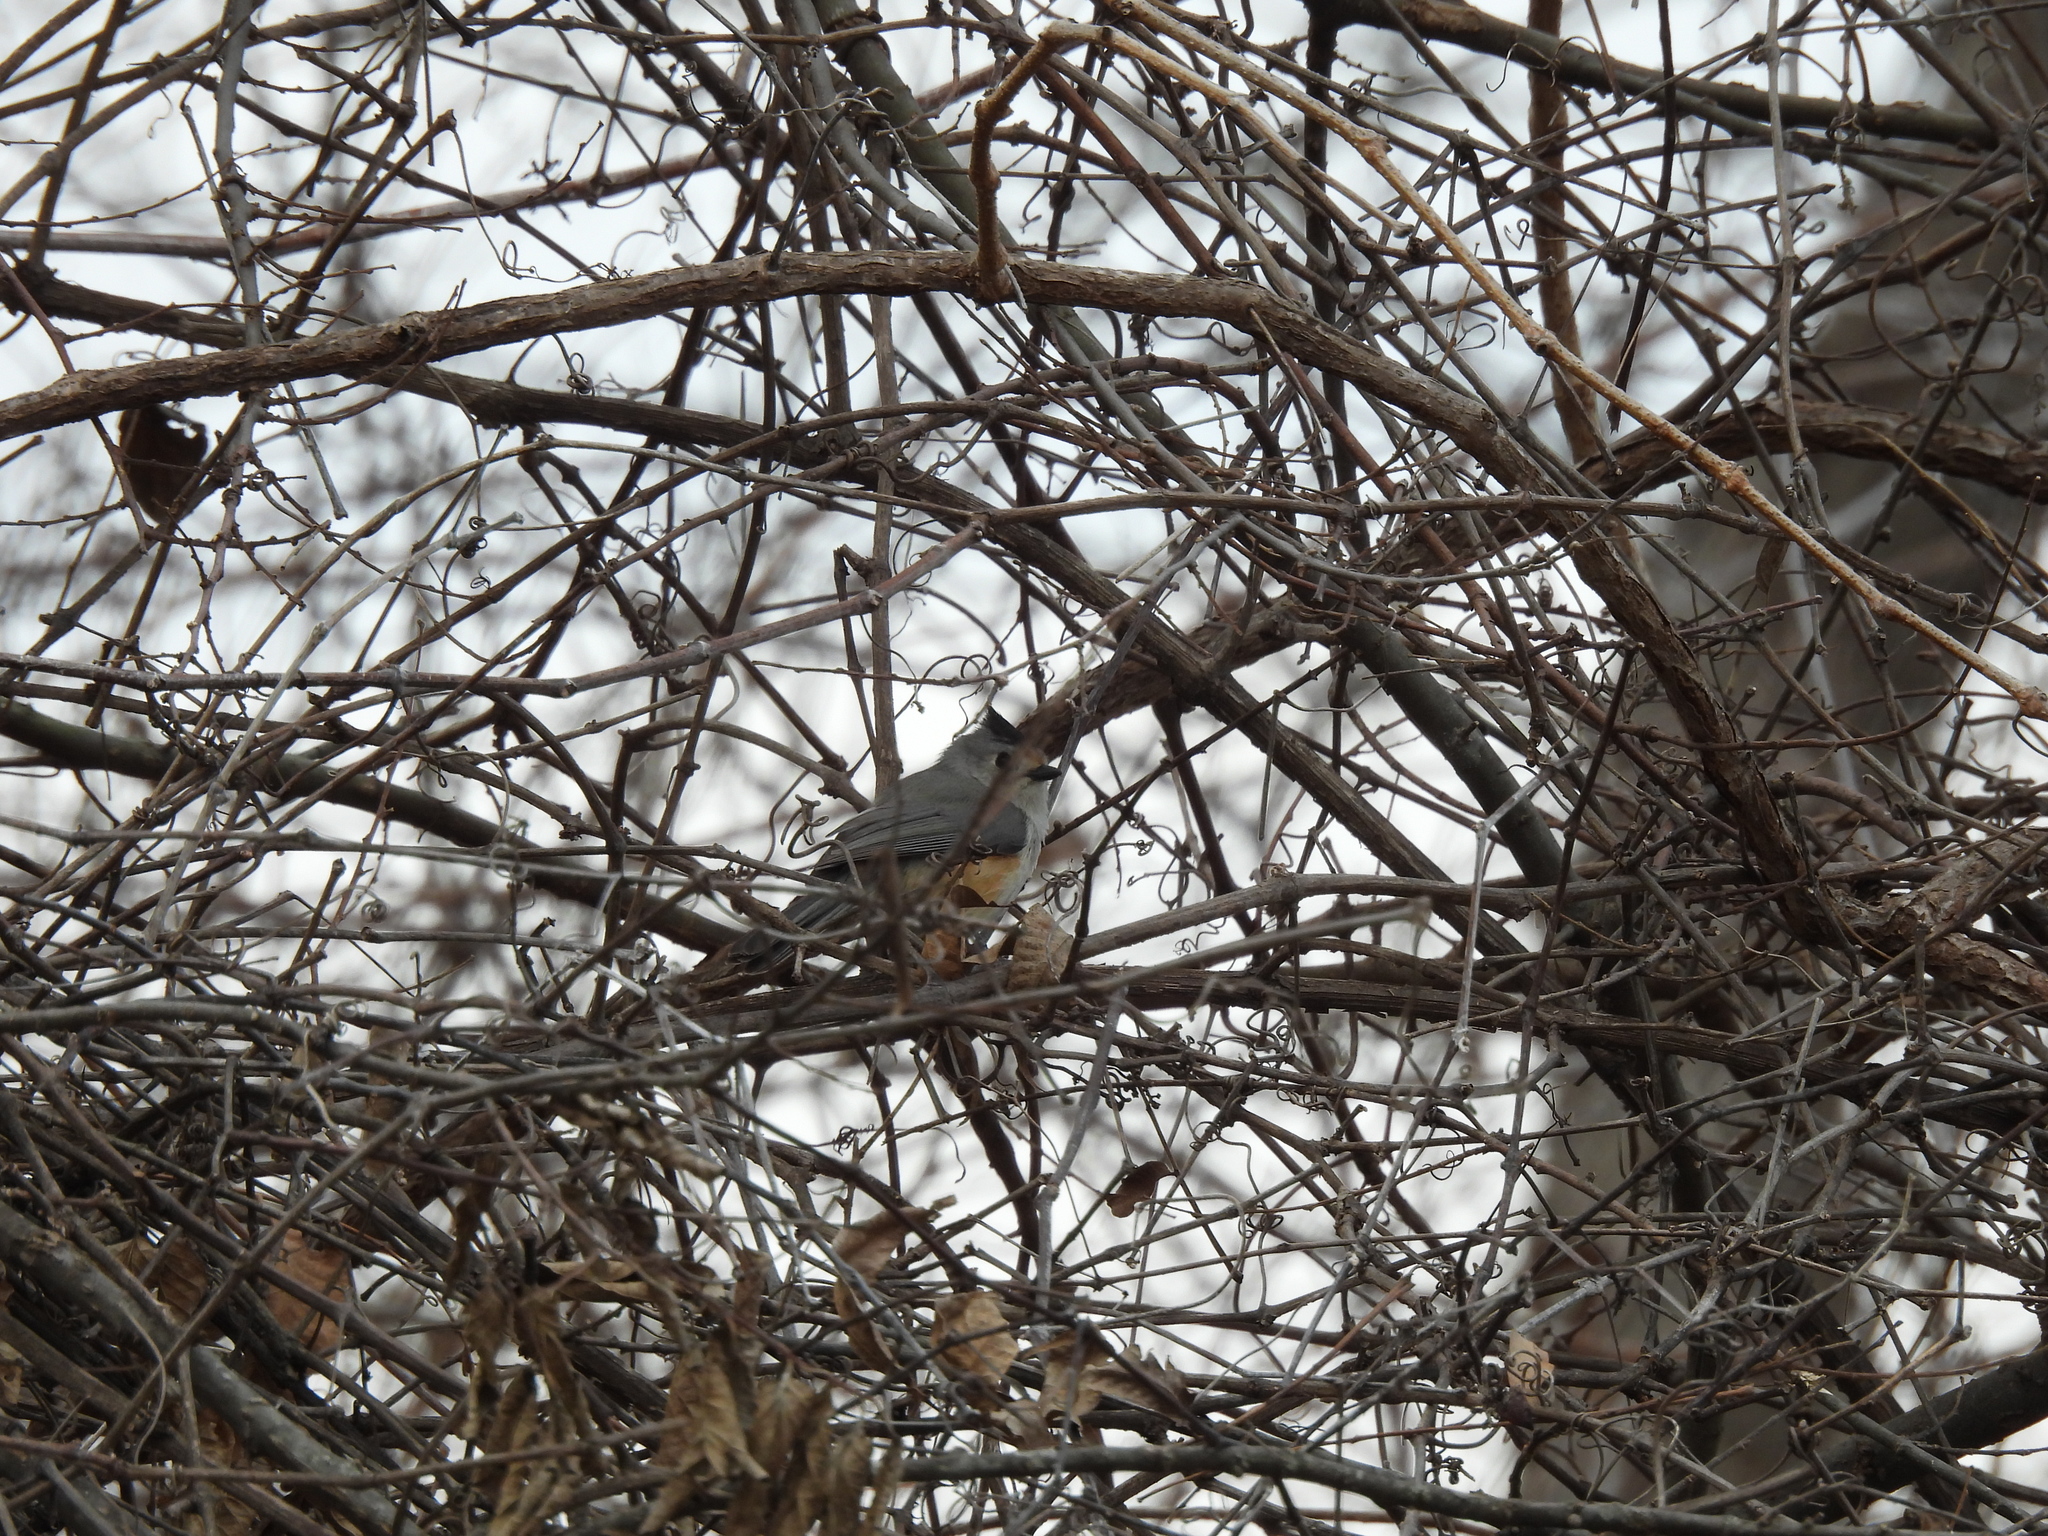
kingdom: Animalia
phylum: Chordata
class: Aves
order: Passeriformes
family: Paridae
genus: Baeolophus
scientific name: Baeolophus atricristatus
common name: Black-crested titmouse
